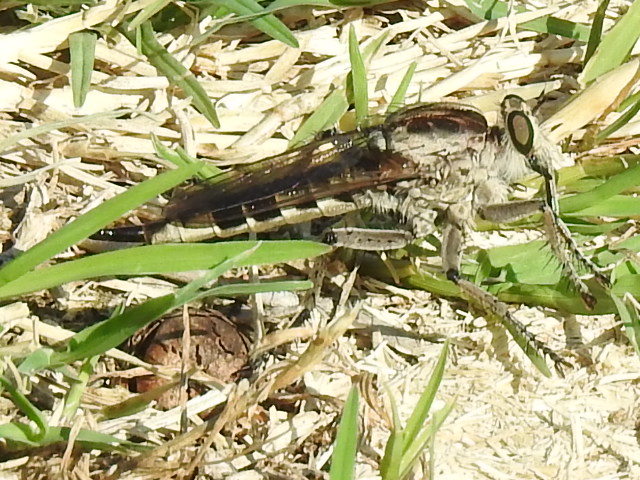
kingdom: Animalia
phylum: Arthropoda
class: Insecta
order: Diptera
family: Asilidae
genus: Triorla
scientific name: Triorla interrupta
